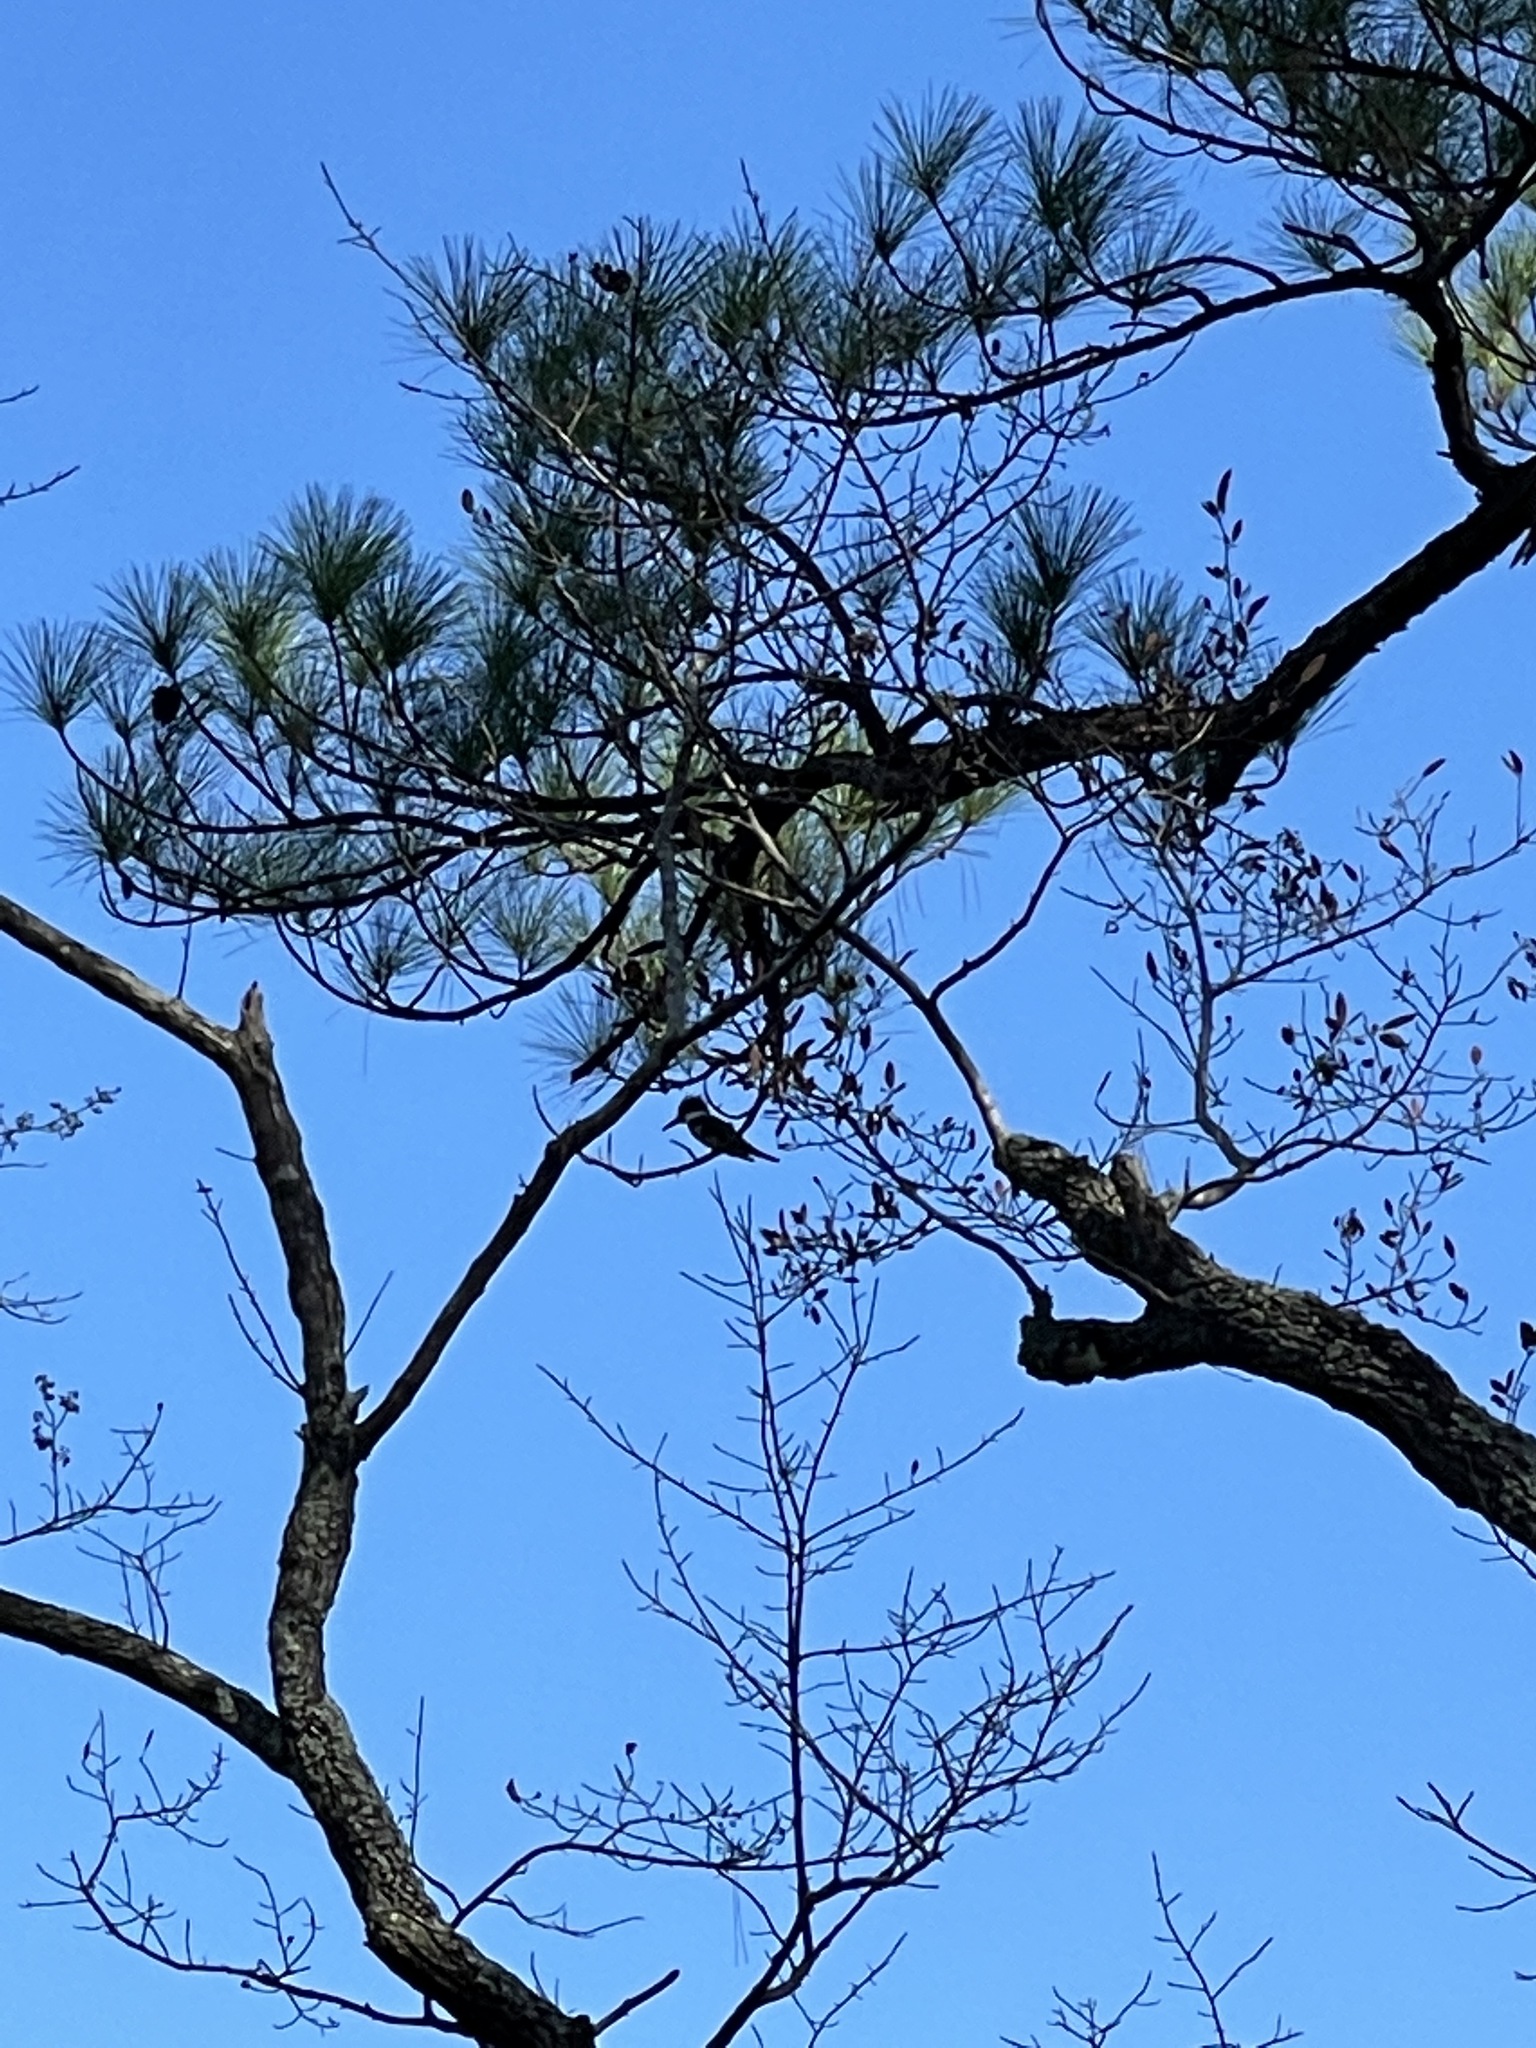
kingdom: Animalia
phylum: Chordata
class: Aves
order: Coraciiformes
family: Alcedinidae
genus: Megaceryle
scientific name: Megaceryle alcyon
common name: Belted kingfisher
